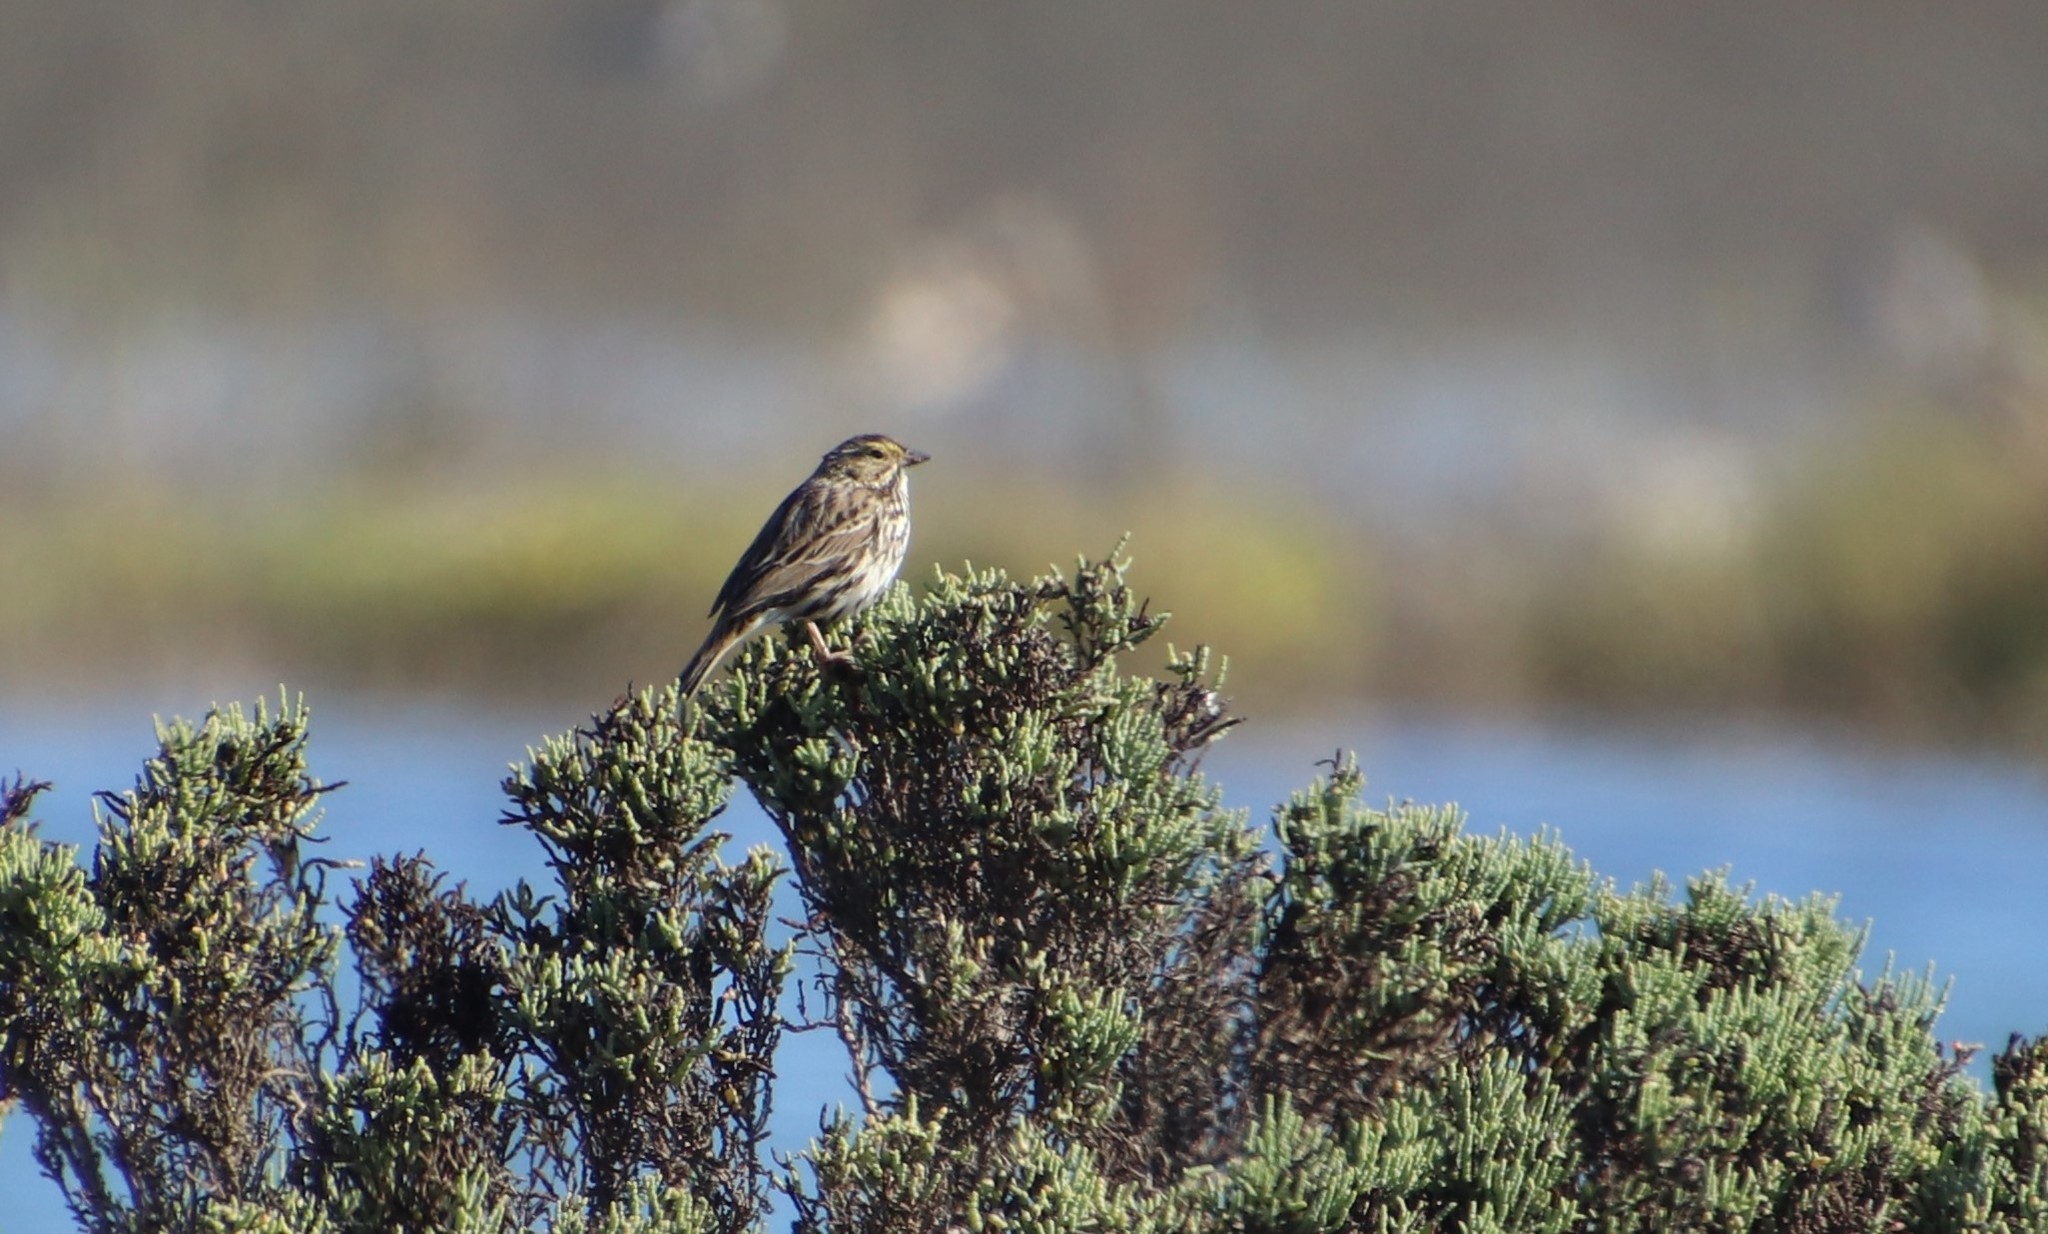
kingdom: Animalia
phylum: Chordata
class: Aves
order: Passeriformes
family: Passerellidae
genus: Passerculus
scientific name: Passerculus sandwichensis
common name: Savannah sparrow
